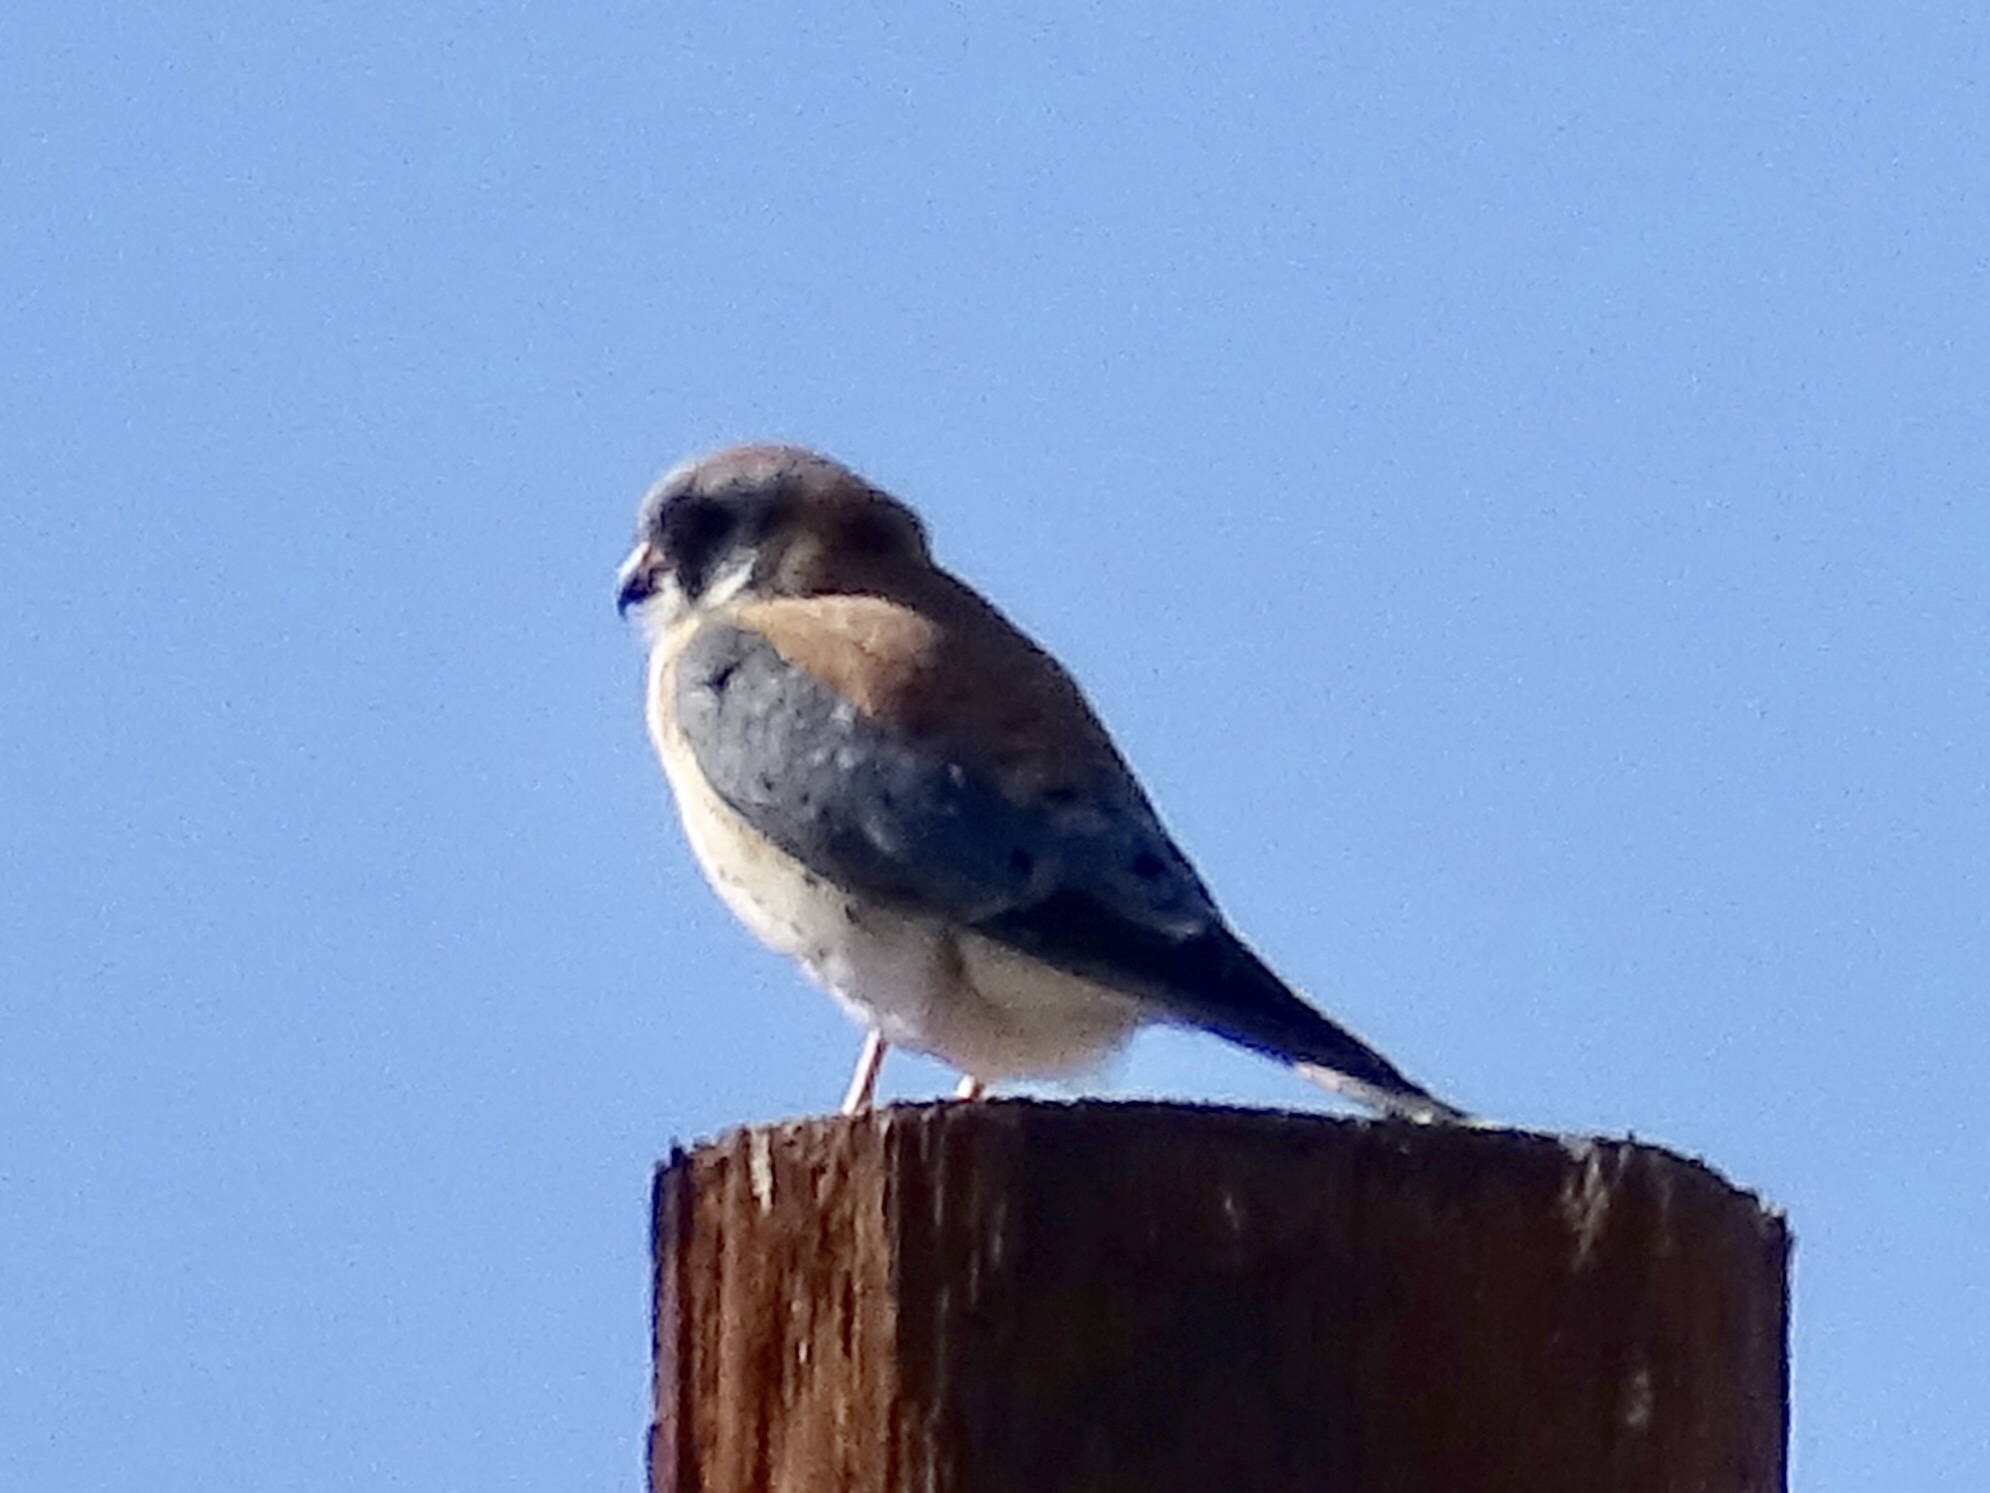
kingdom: Animalia
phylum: Chordata
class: Aves
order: Falconiformes
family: Falconidae
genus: Falco
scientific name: Falco sparverius
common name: American kestrel
